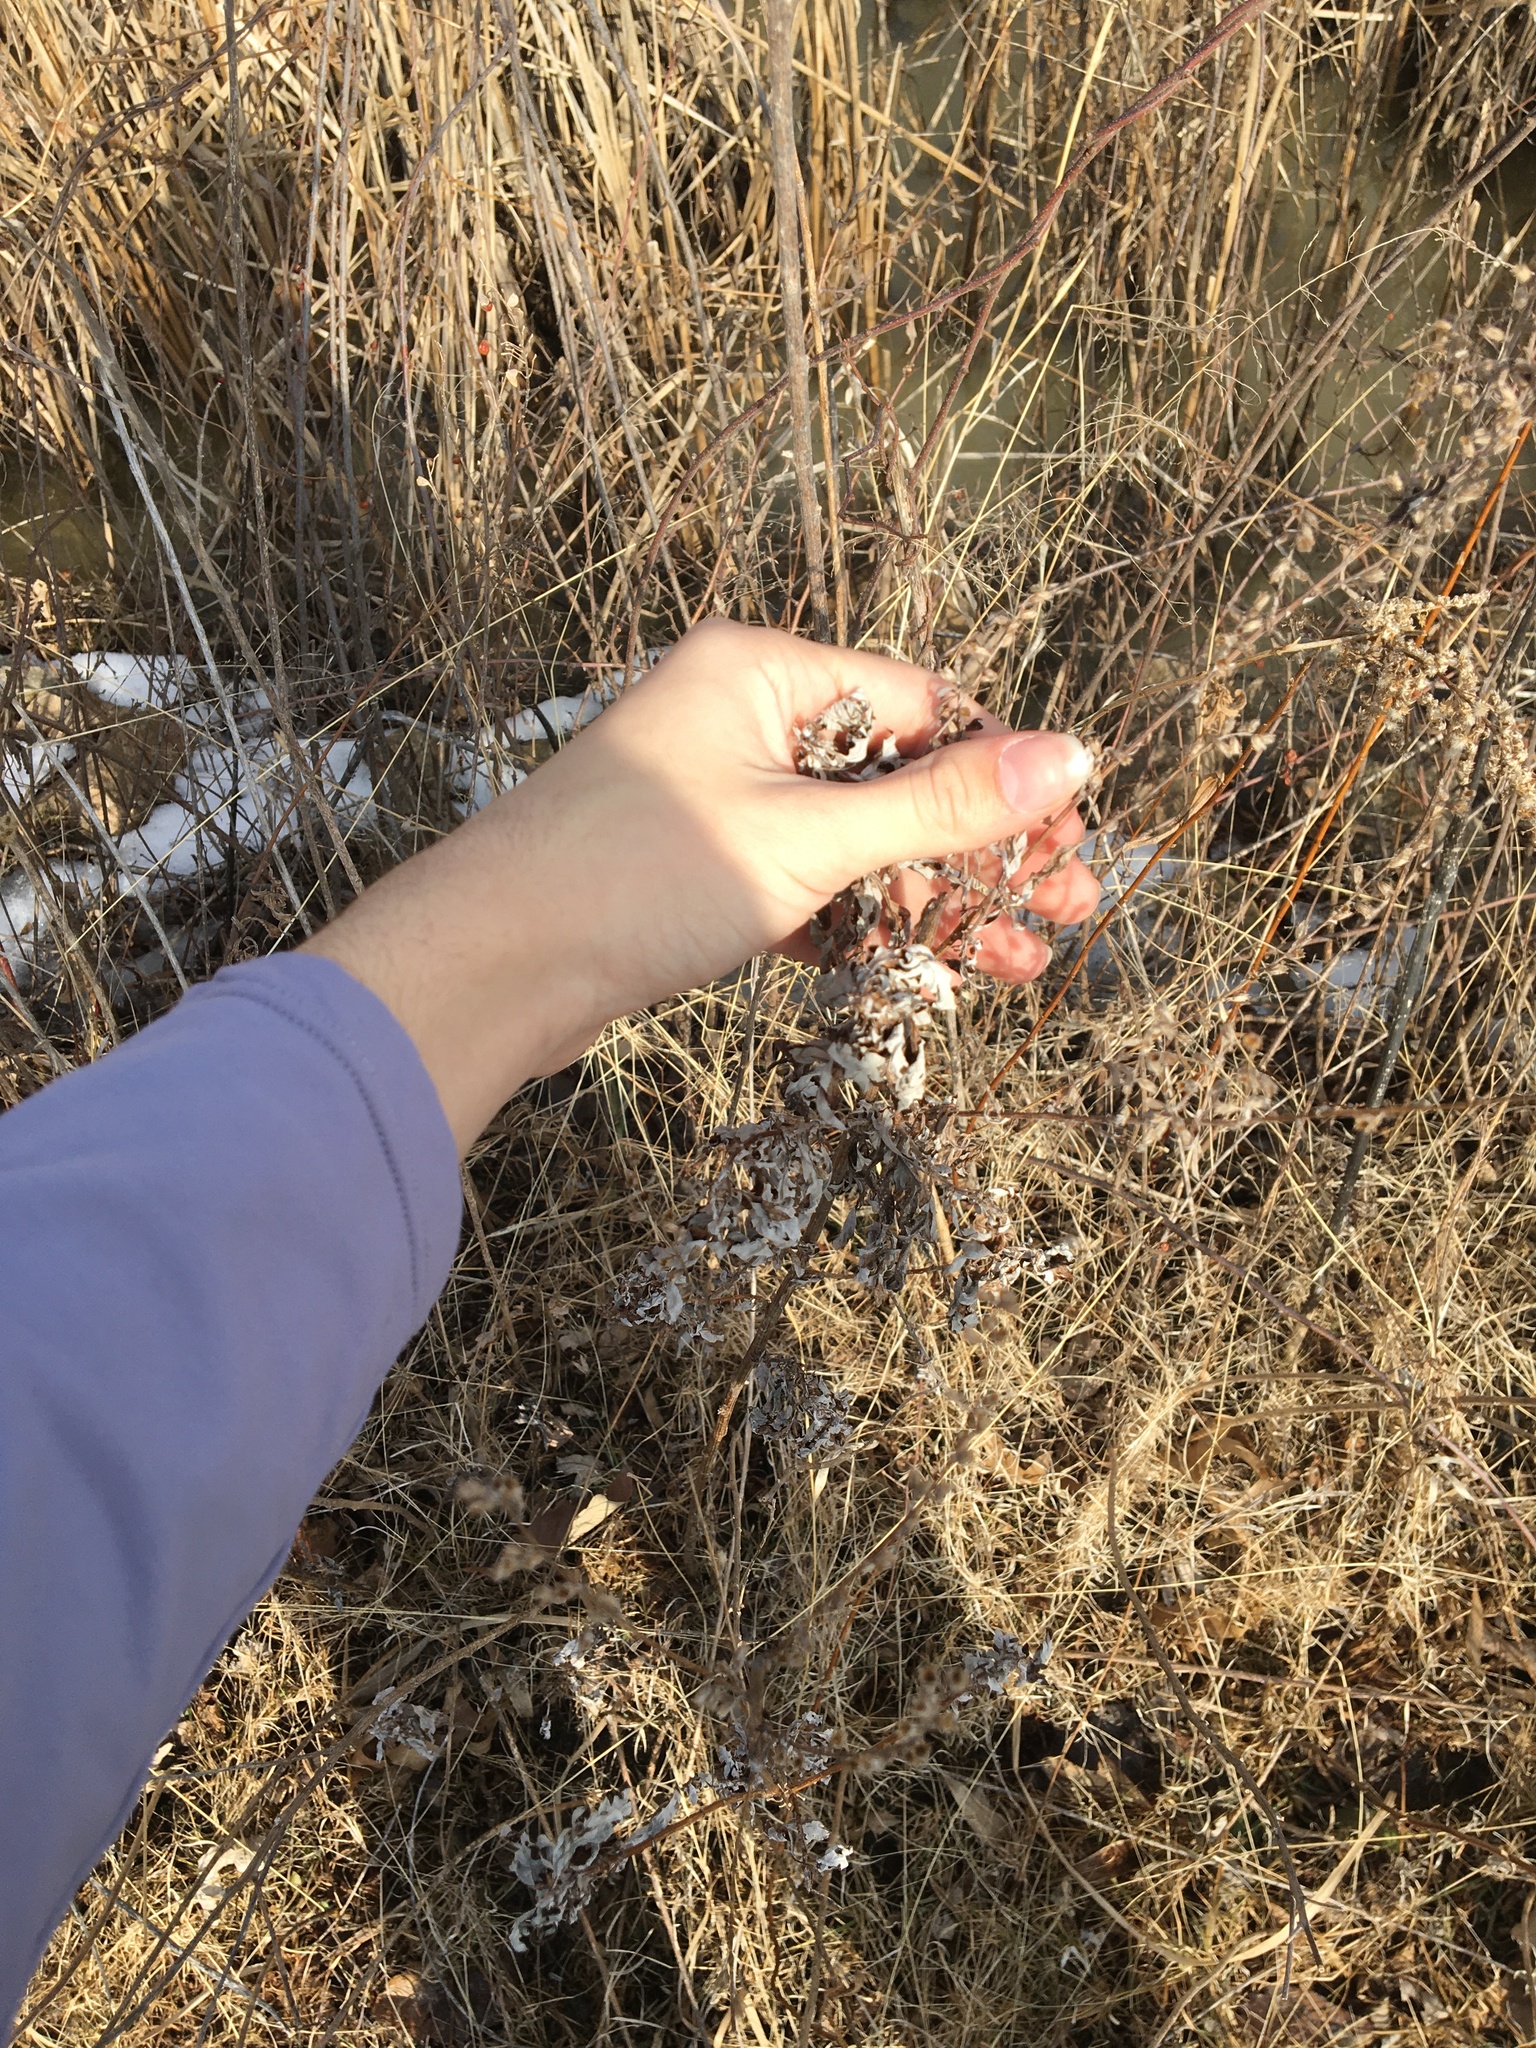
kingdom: Plantae
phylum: Tracheophyta
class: Magnoliopsida
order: Asterales
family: Asteraceae
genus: Artemisia
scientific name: Artemisia vulgaris
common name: Mugwort
